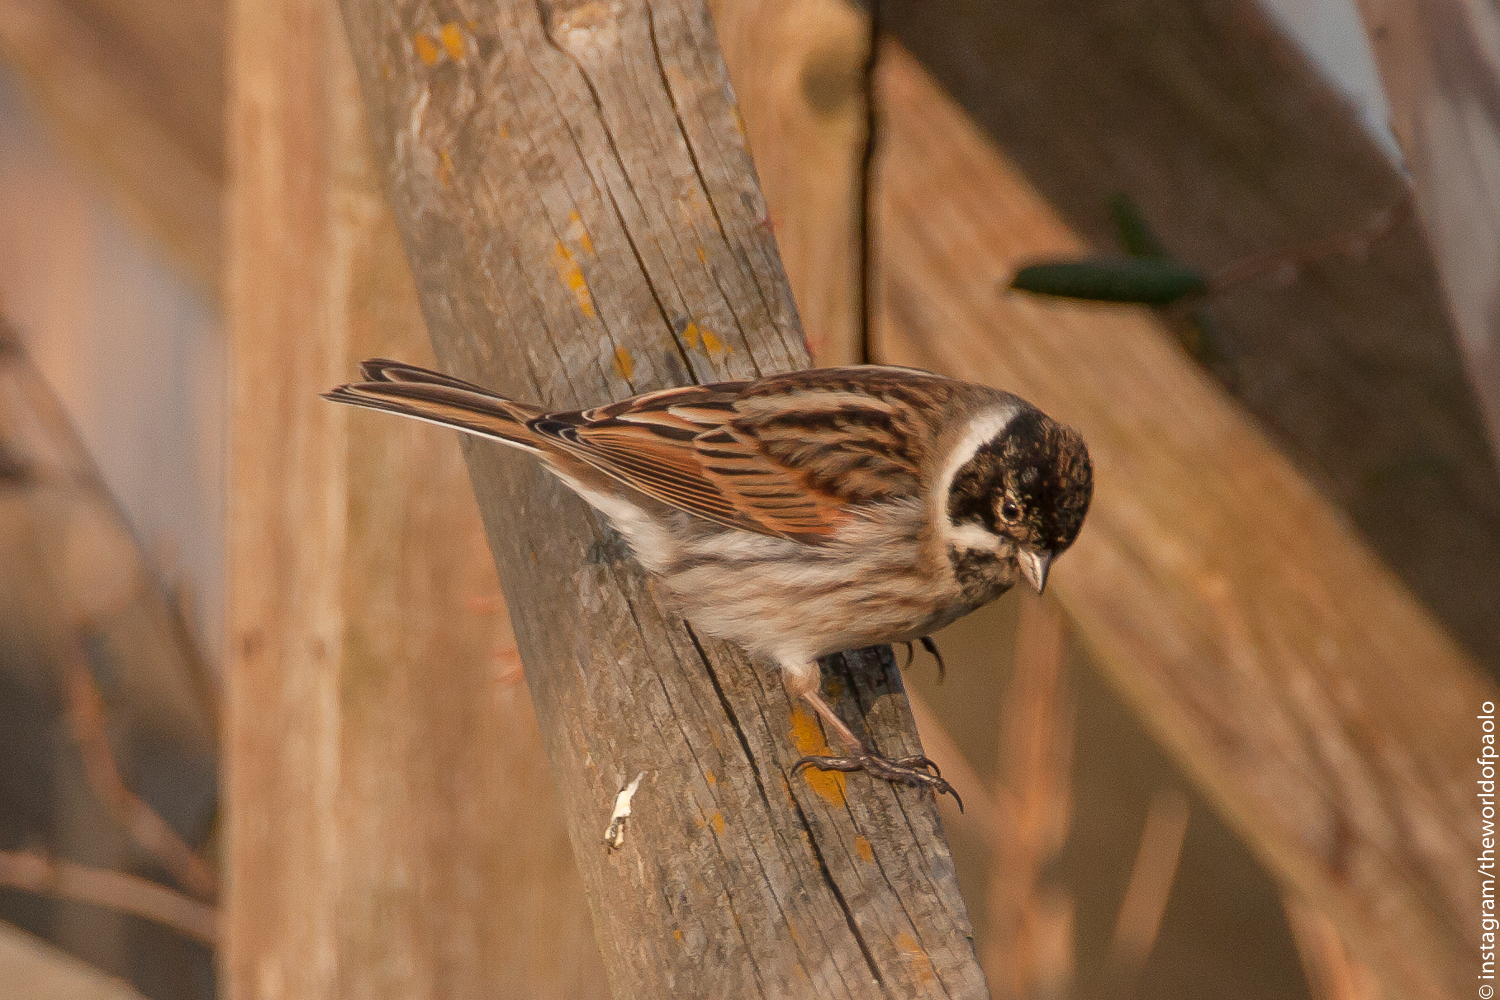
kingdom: Animalia
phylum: Chordata
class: Aves
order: Passeriformes
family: Emberizidae
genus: Emberiza
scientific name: Emberiza schoeniclus
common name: Reed bunting
